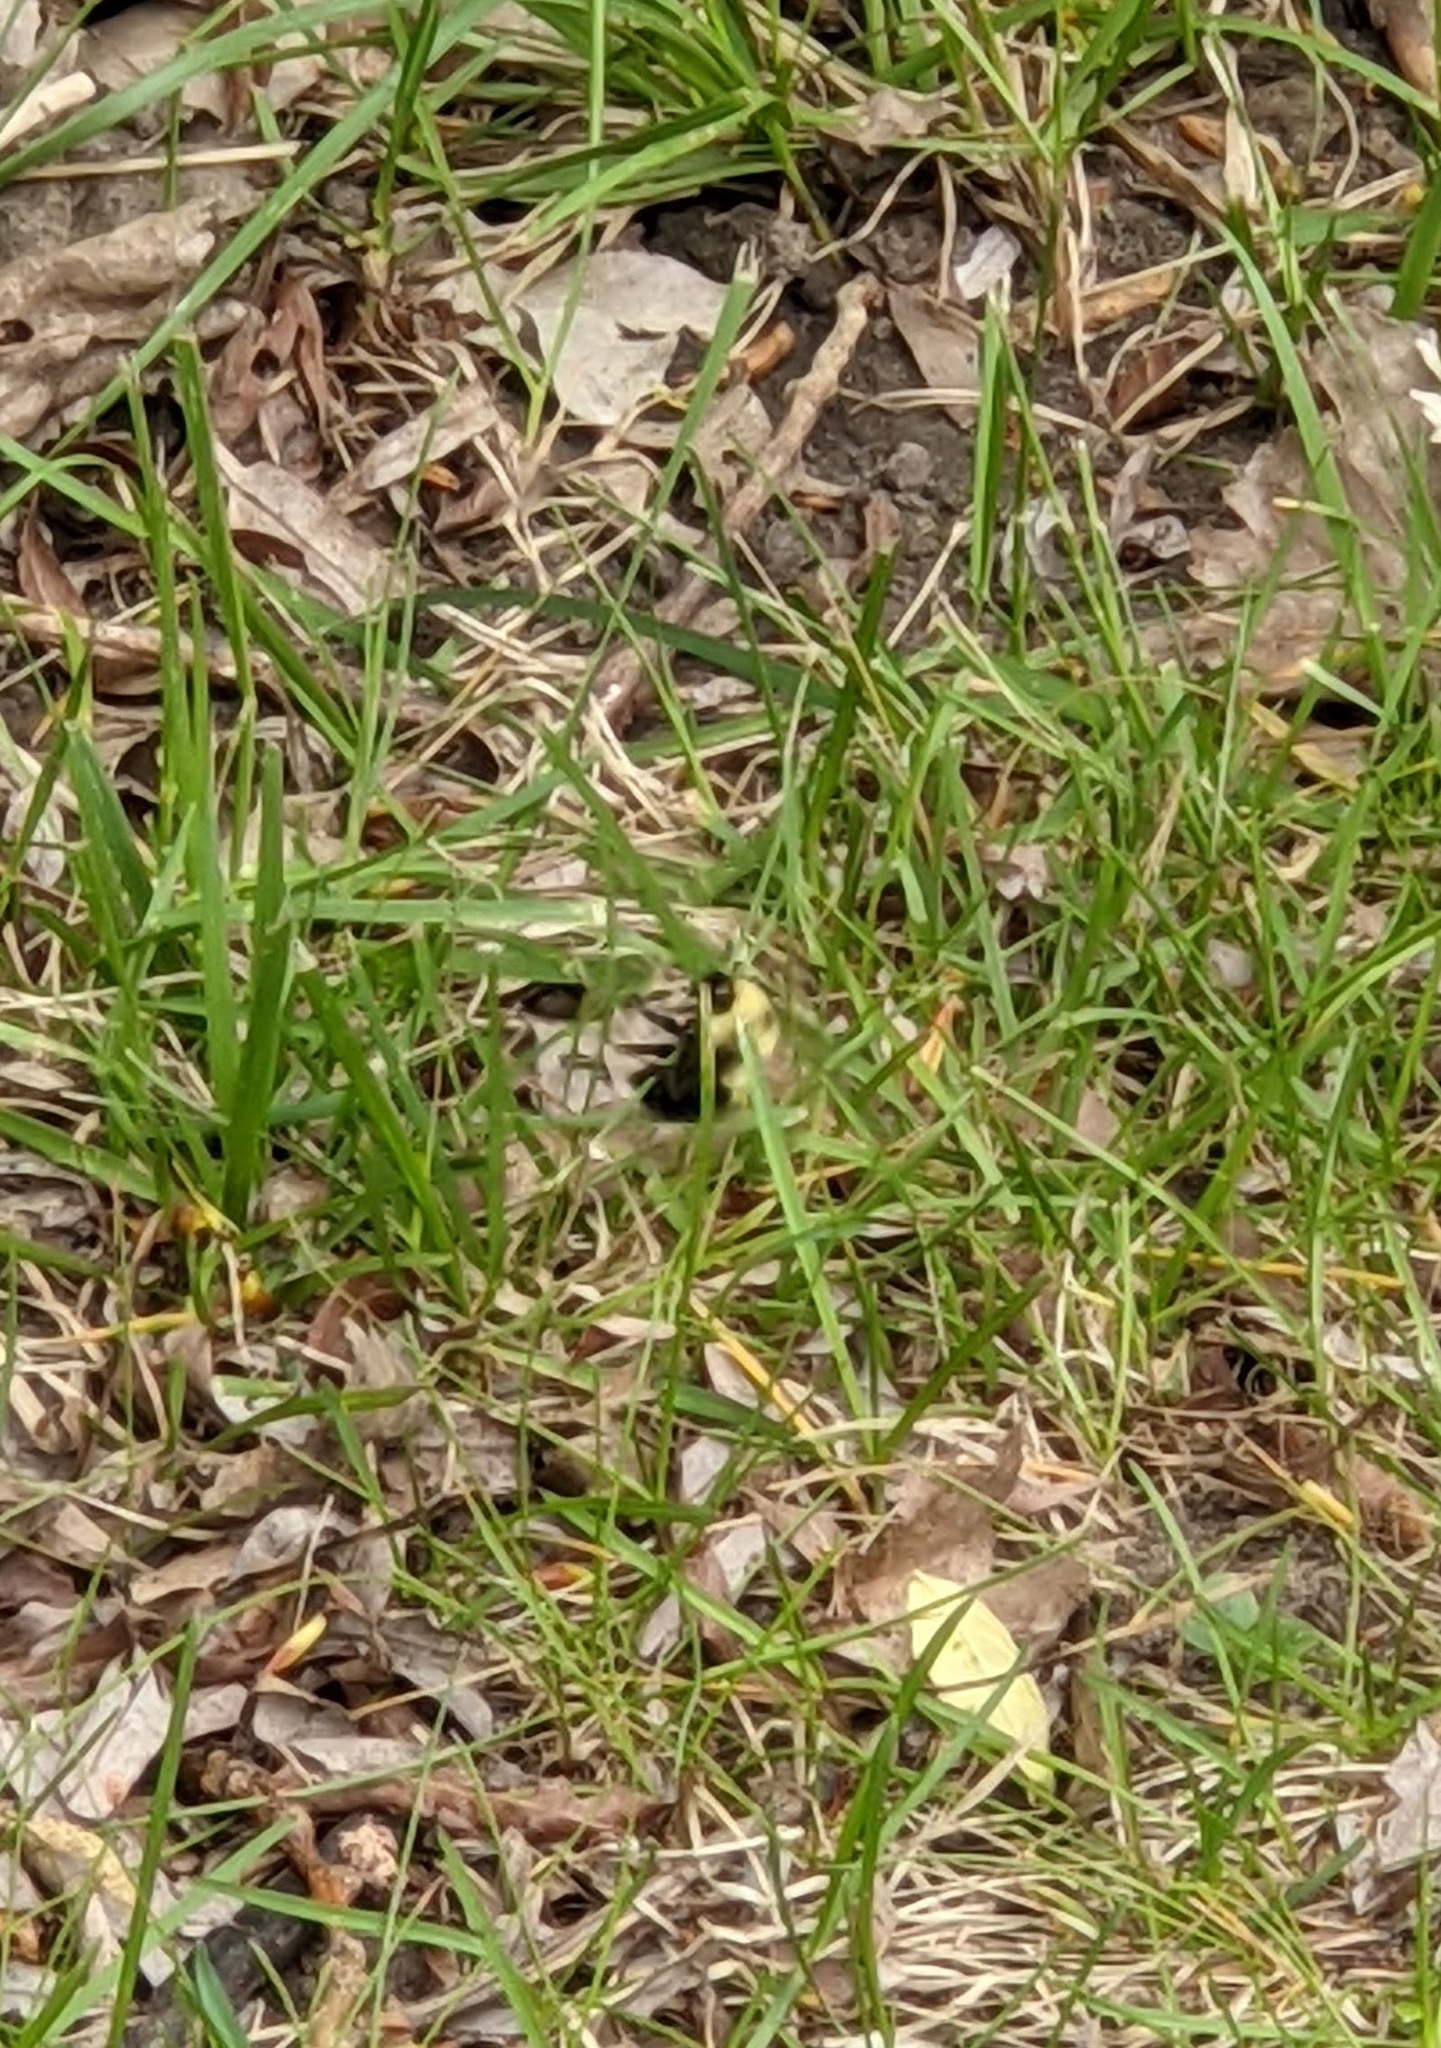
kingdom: Animalia
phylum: Arthropoda
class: Insecta
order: Hymenoptera
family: Apidae
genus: Bombus
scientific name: Bombus bimaculatus
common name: Two-spotted bumble bee
